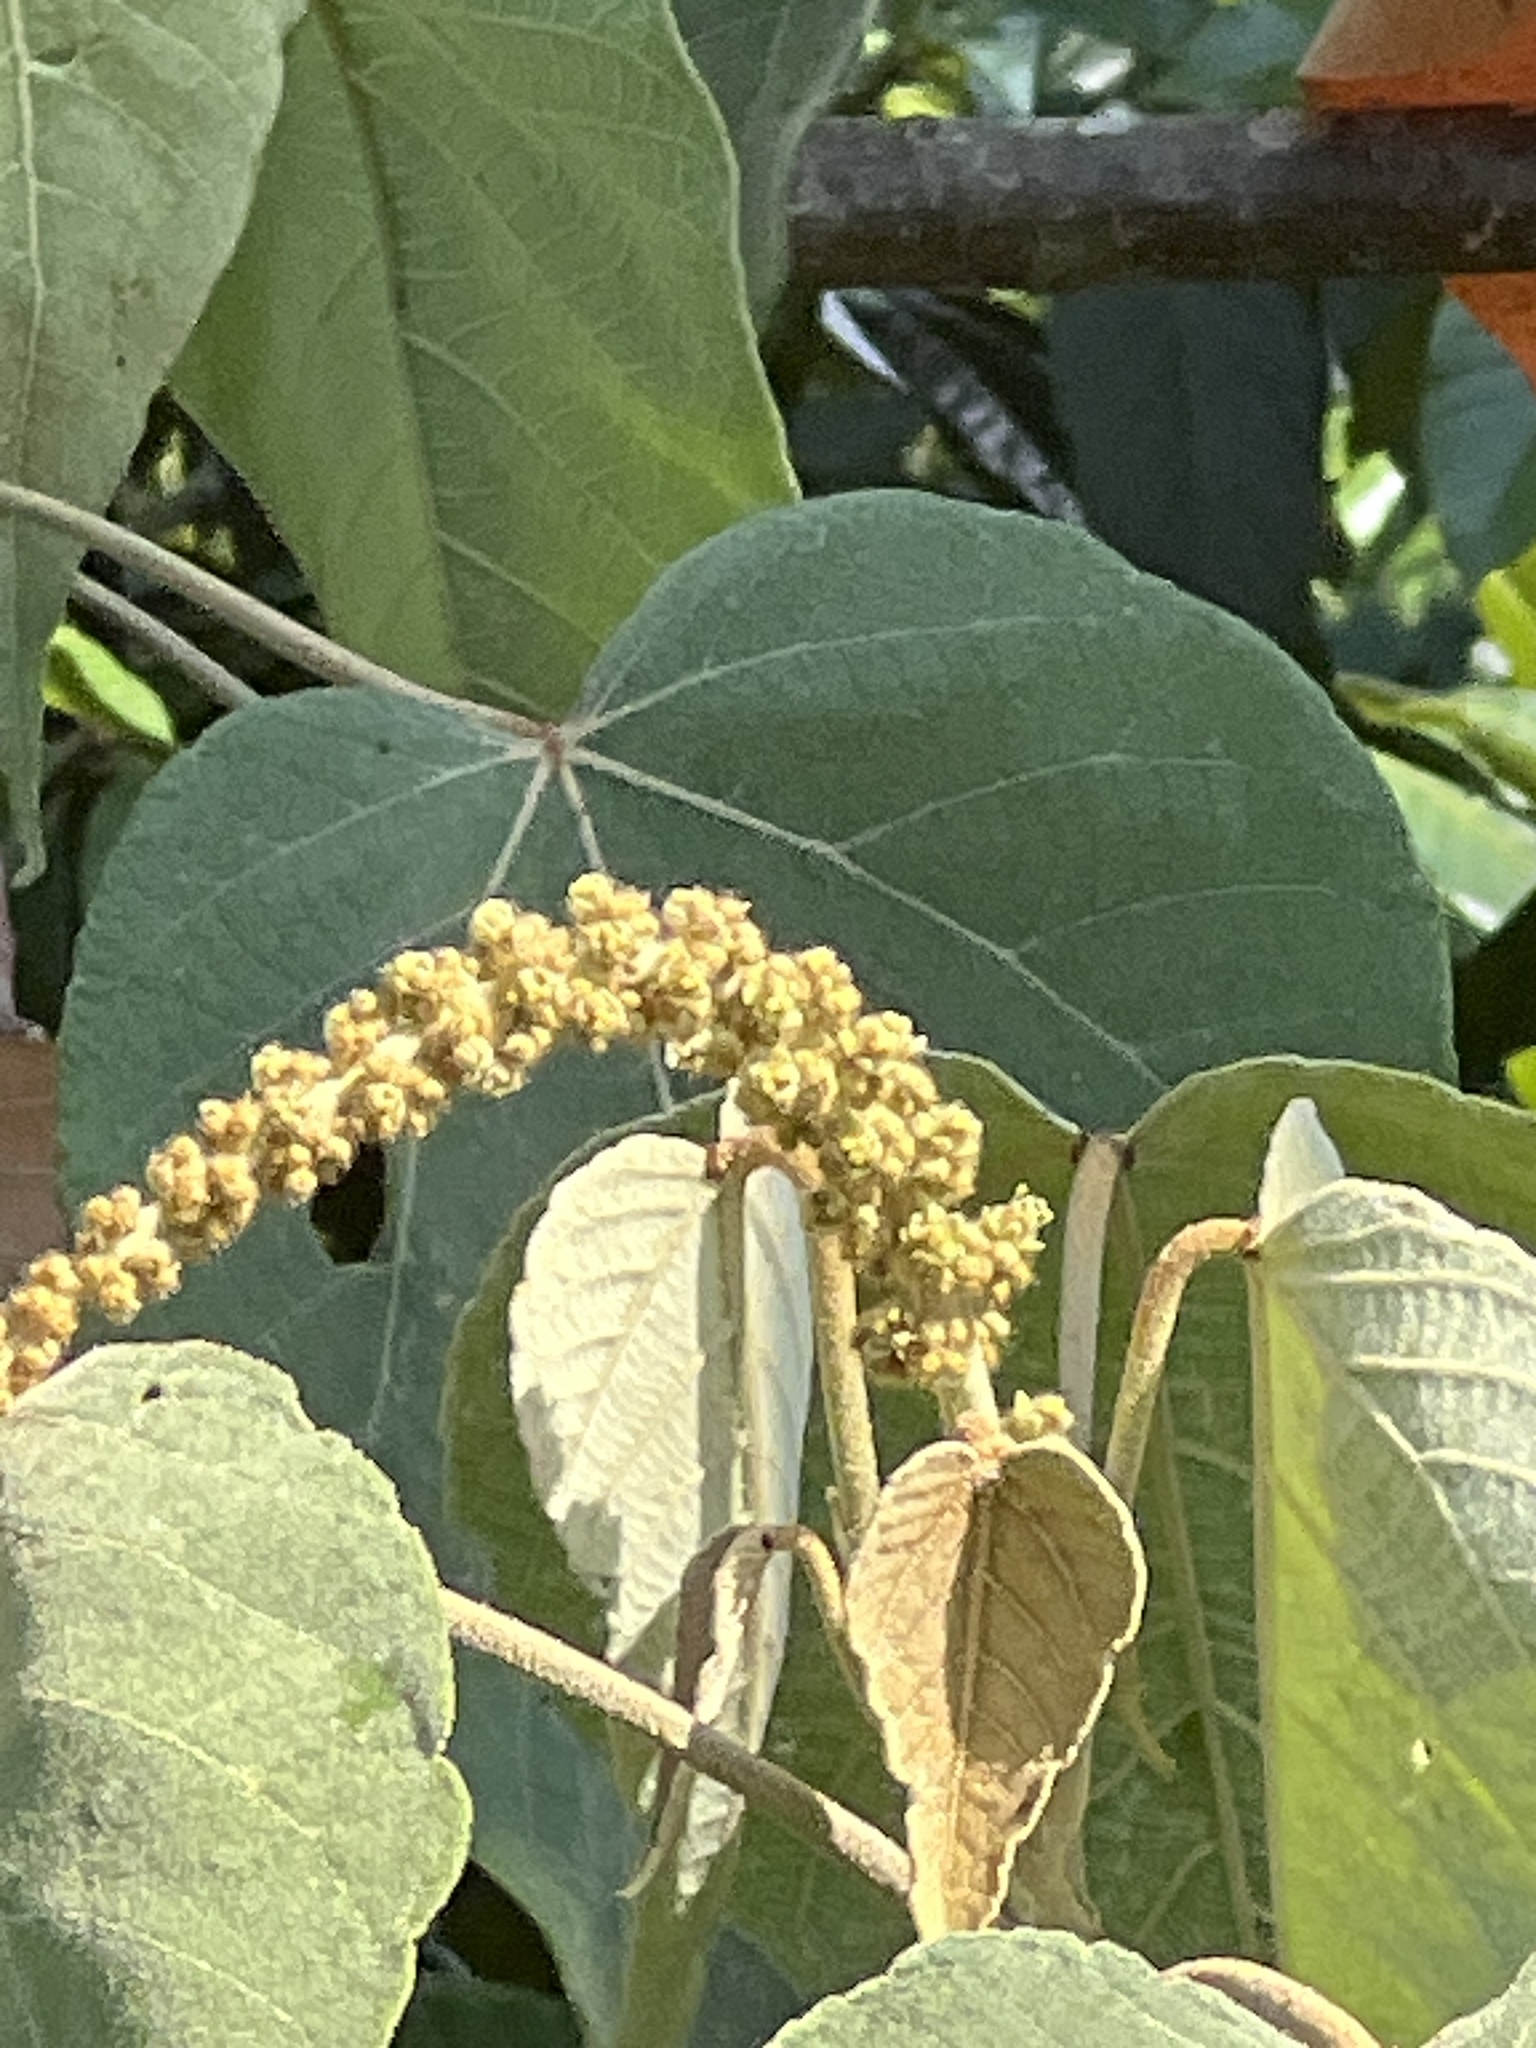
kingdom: Plantae
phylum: Tracheophyta
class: Magnoliopsida
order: Malpighiales
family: Euphorbiaceae
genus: Croton
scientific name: Croton draco
